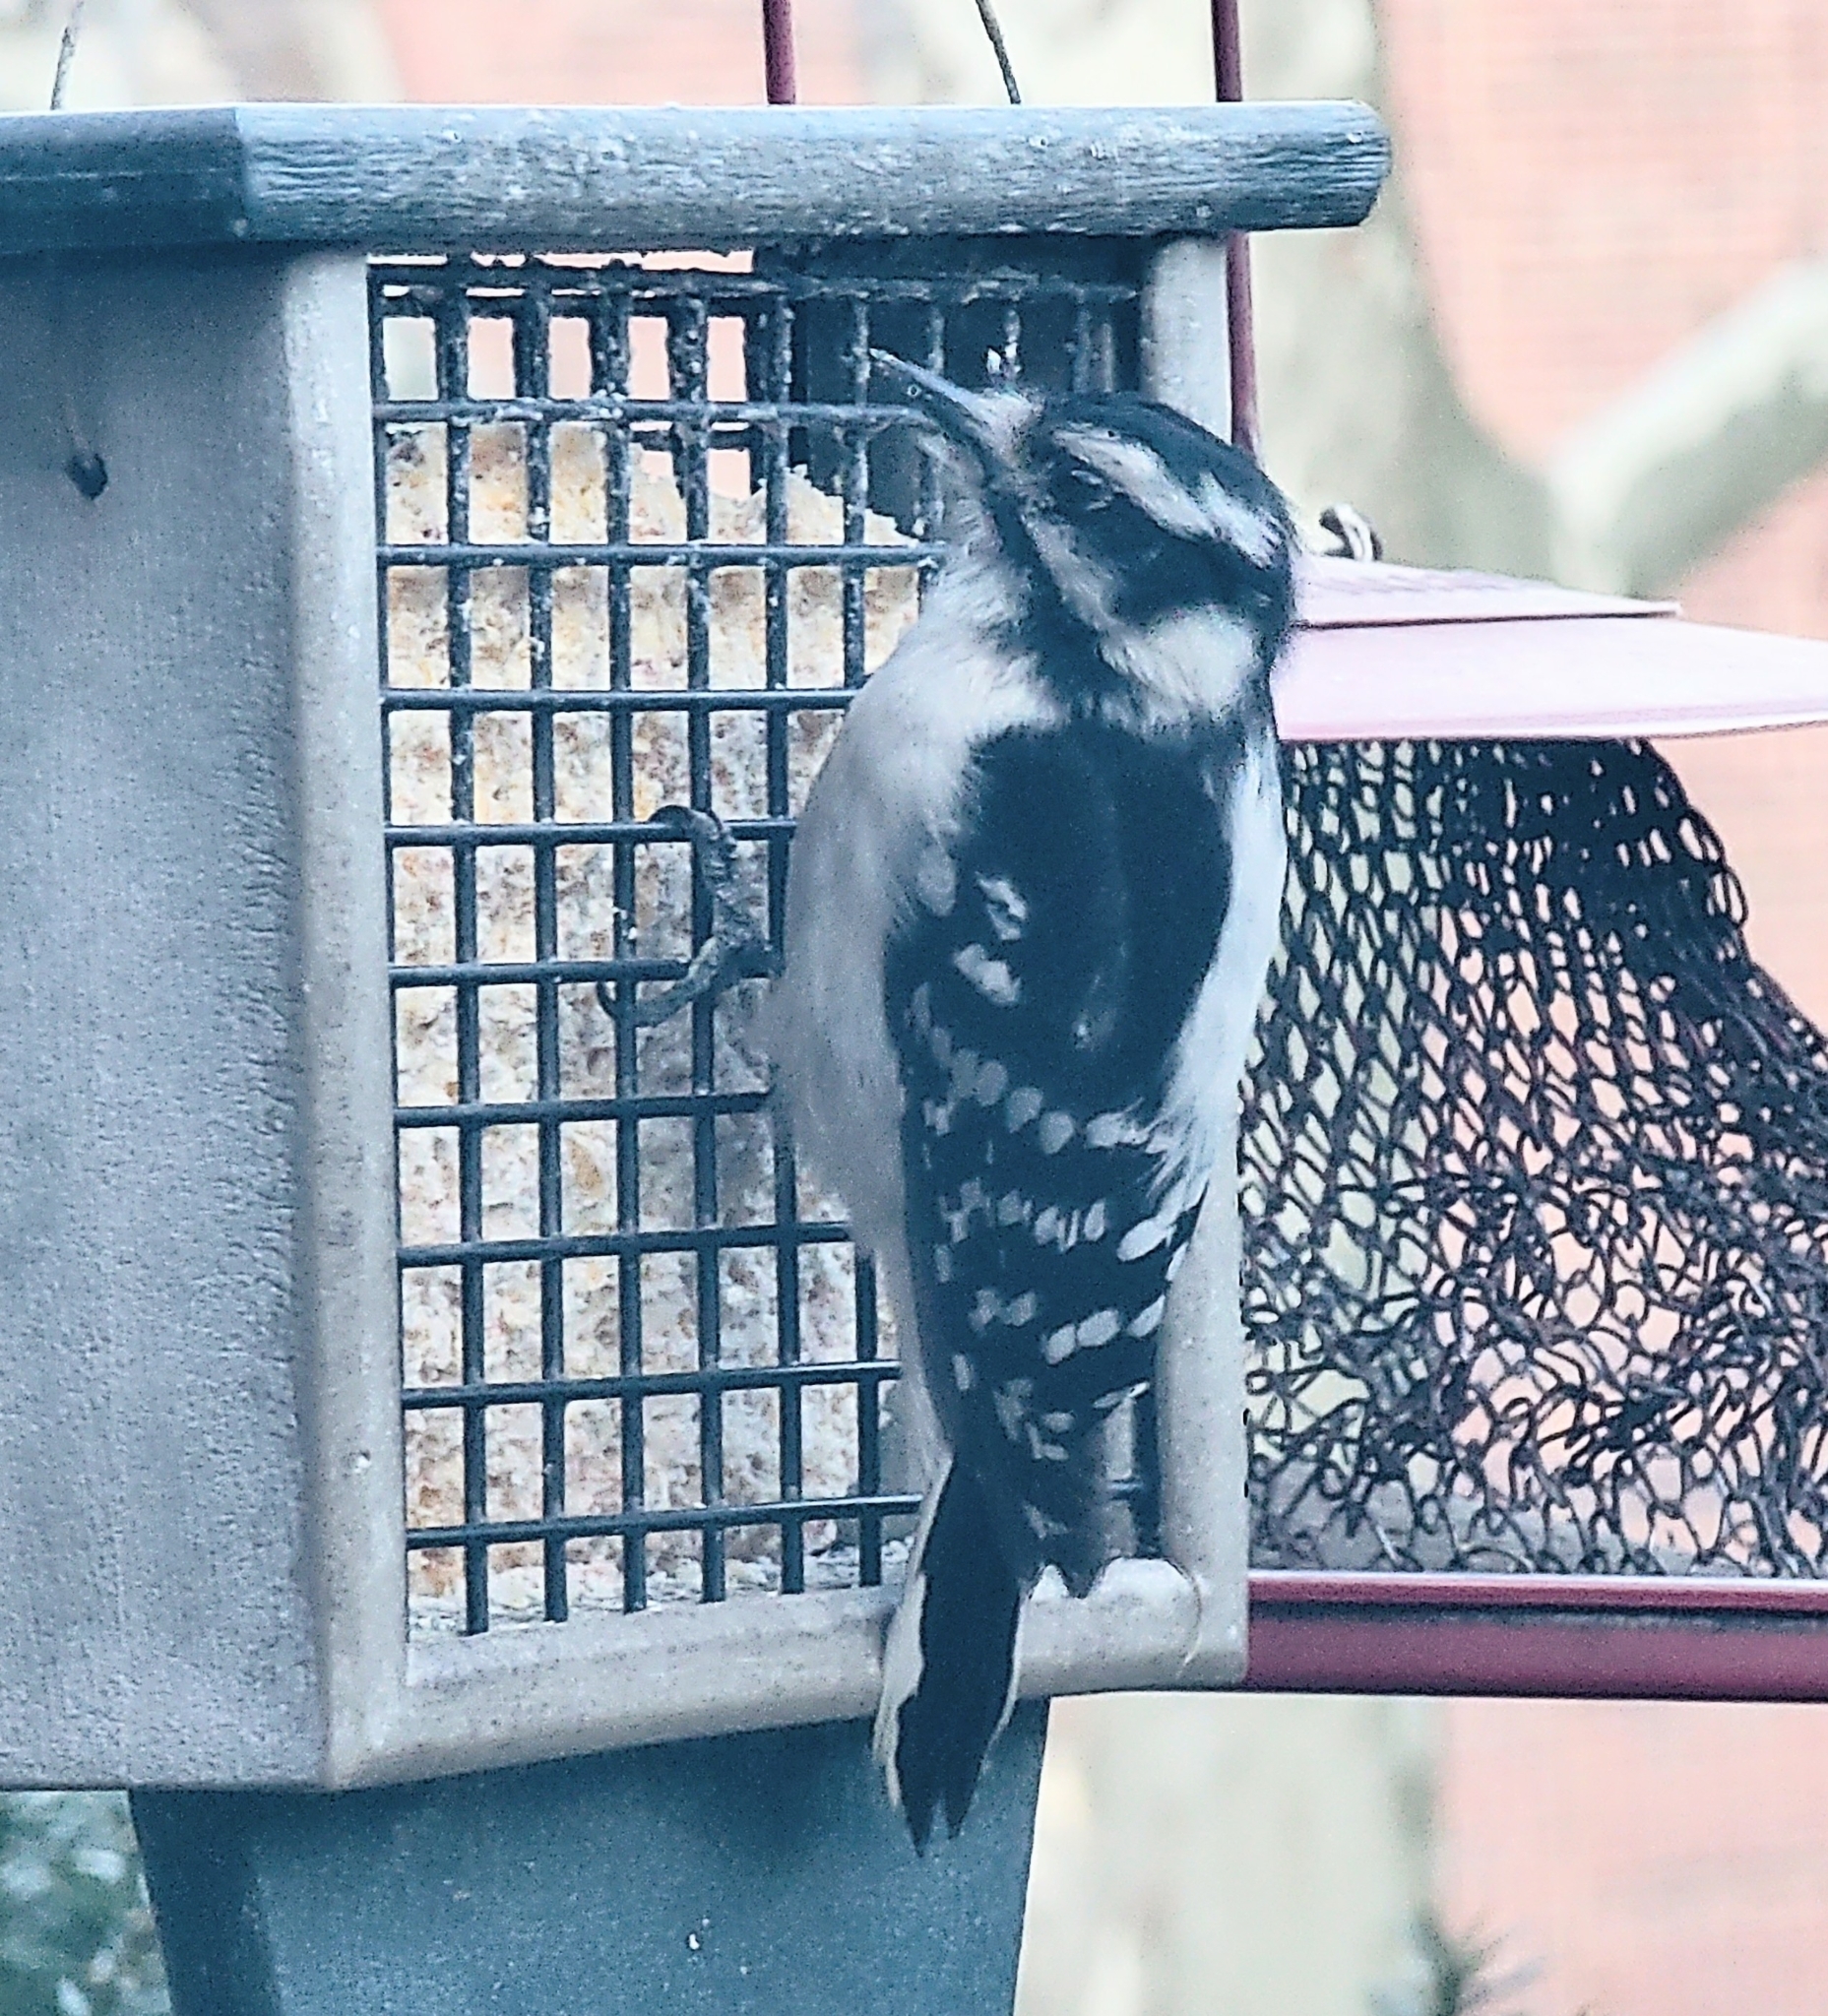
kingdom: Animalia
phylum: Chordata
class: Aves
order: Piciformes
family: Picidae
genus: Dryobates
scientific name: Dryobates pubescens
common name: Downy woodpecker
